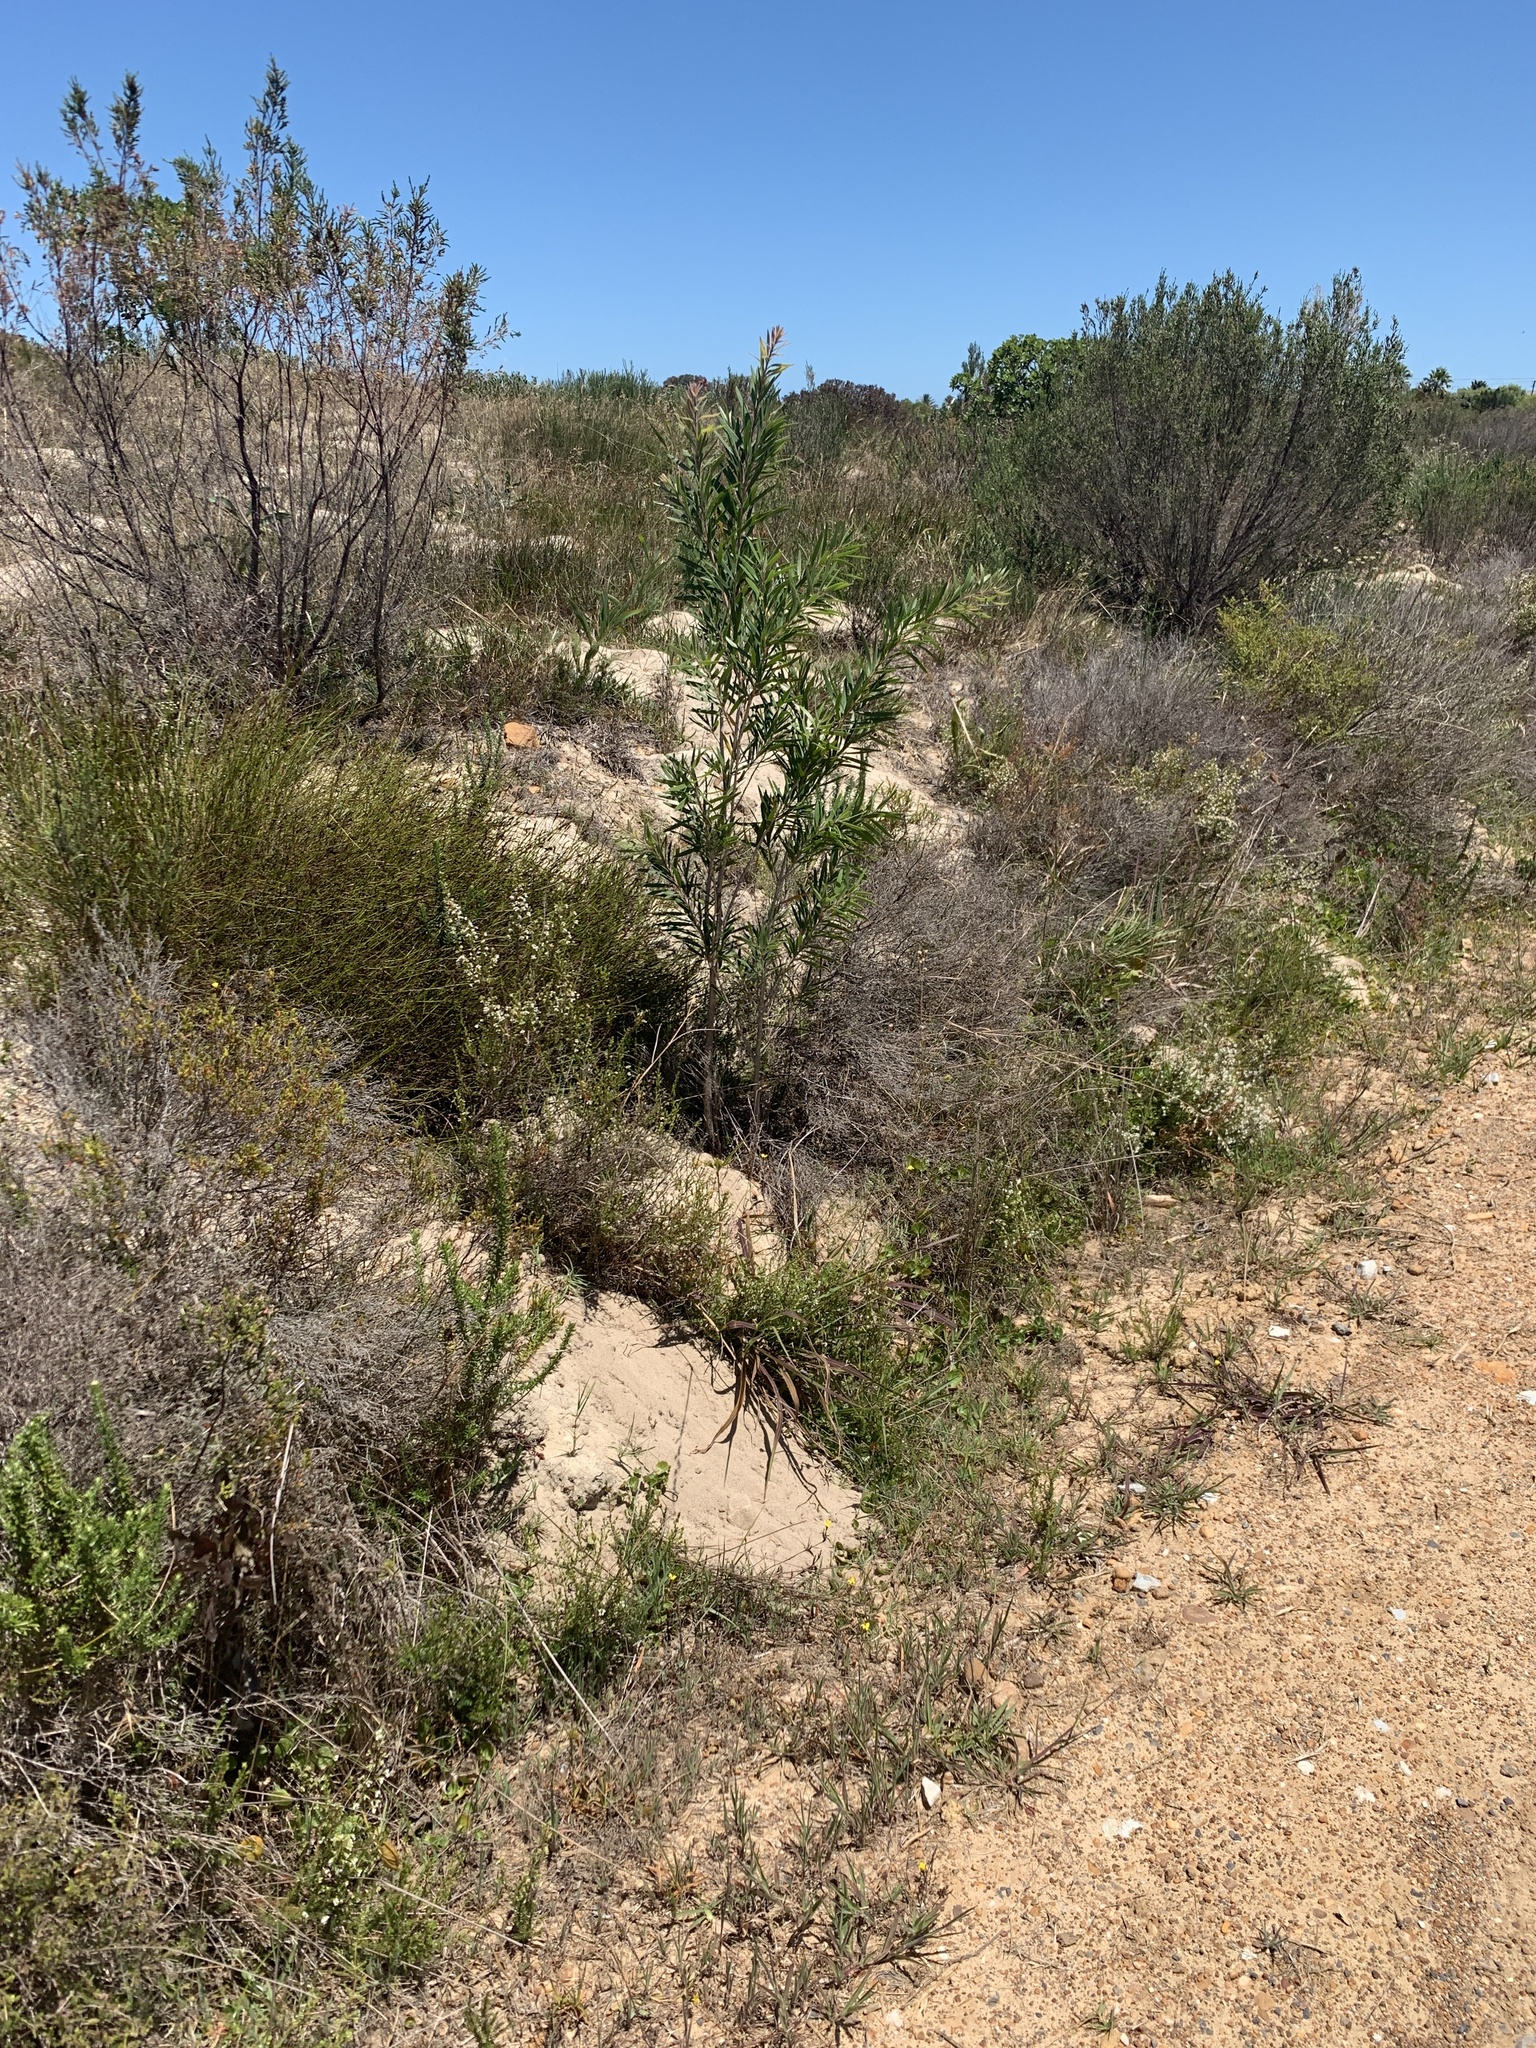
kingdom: Plantae
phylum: Tracheophyta
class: Magnoliopsida
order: Myrtales
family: Myrtaceae
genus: Callistemon
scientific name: Callistemon viminalis
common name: Drooping bottlebrush
